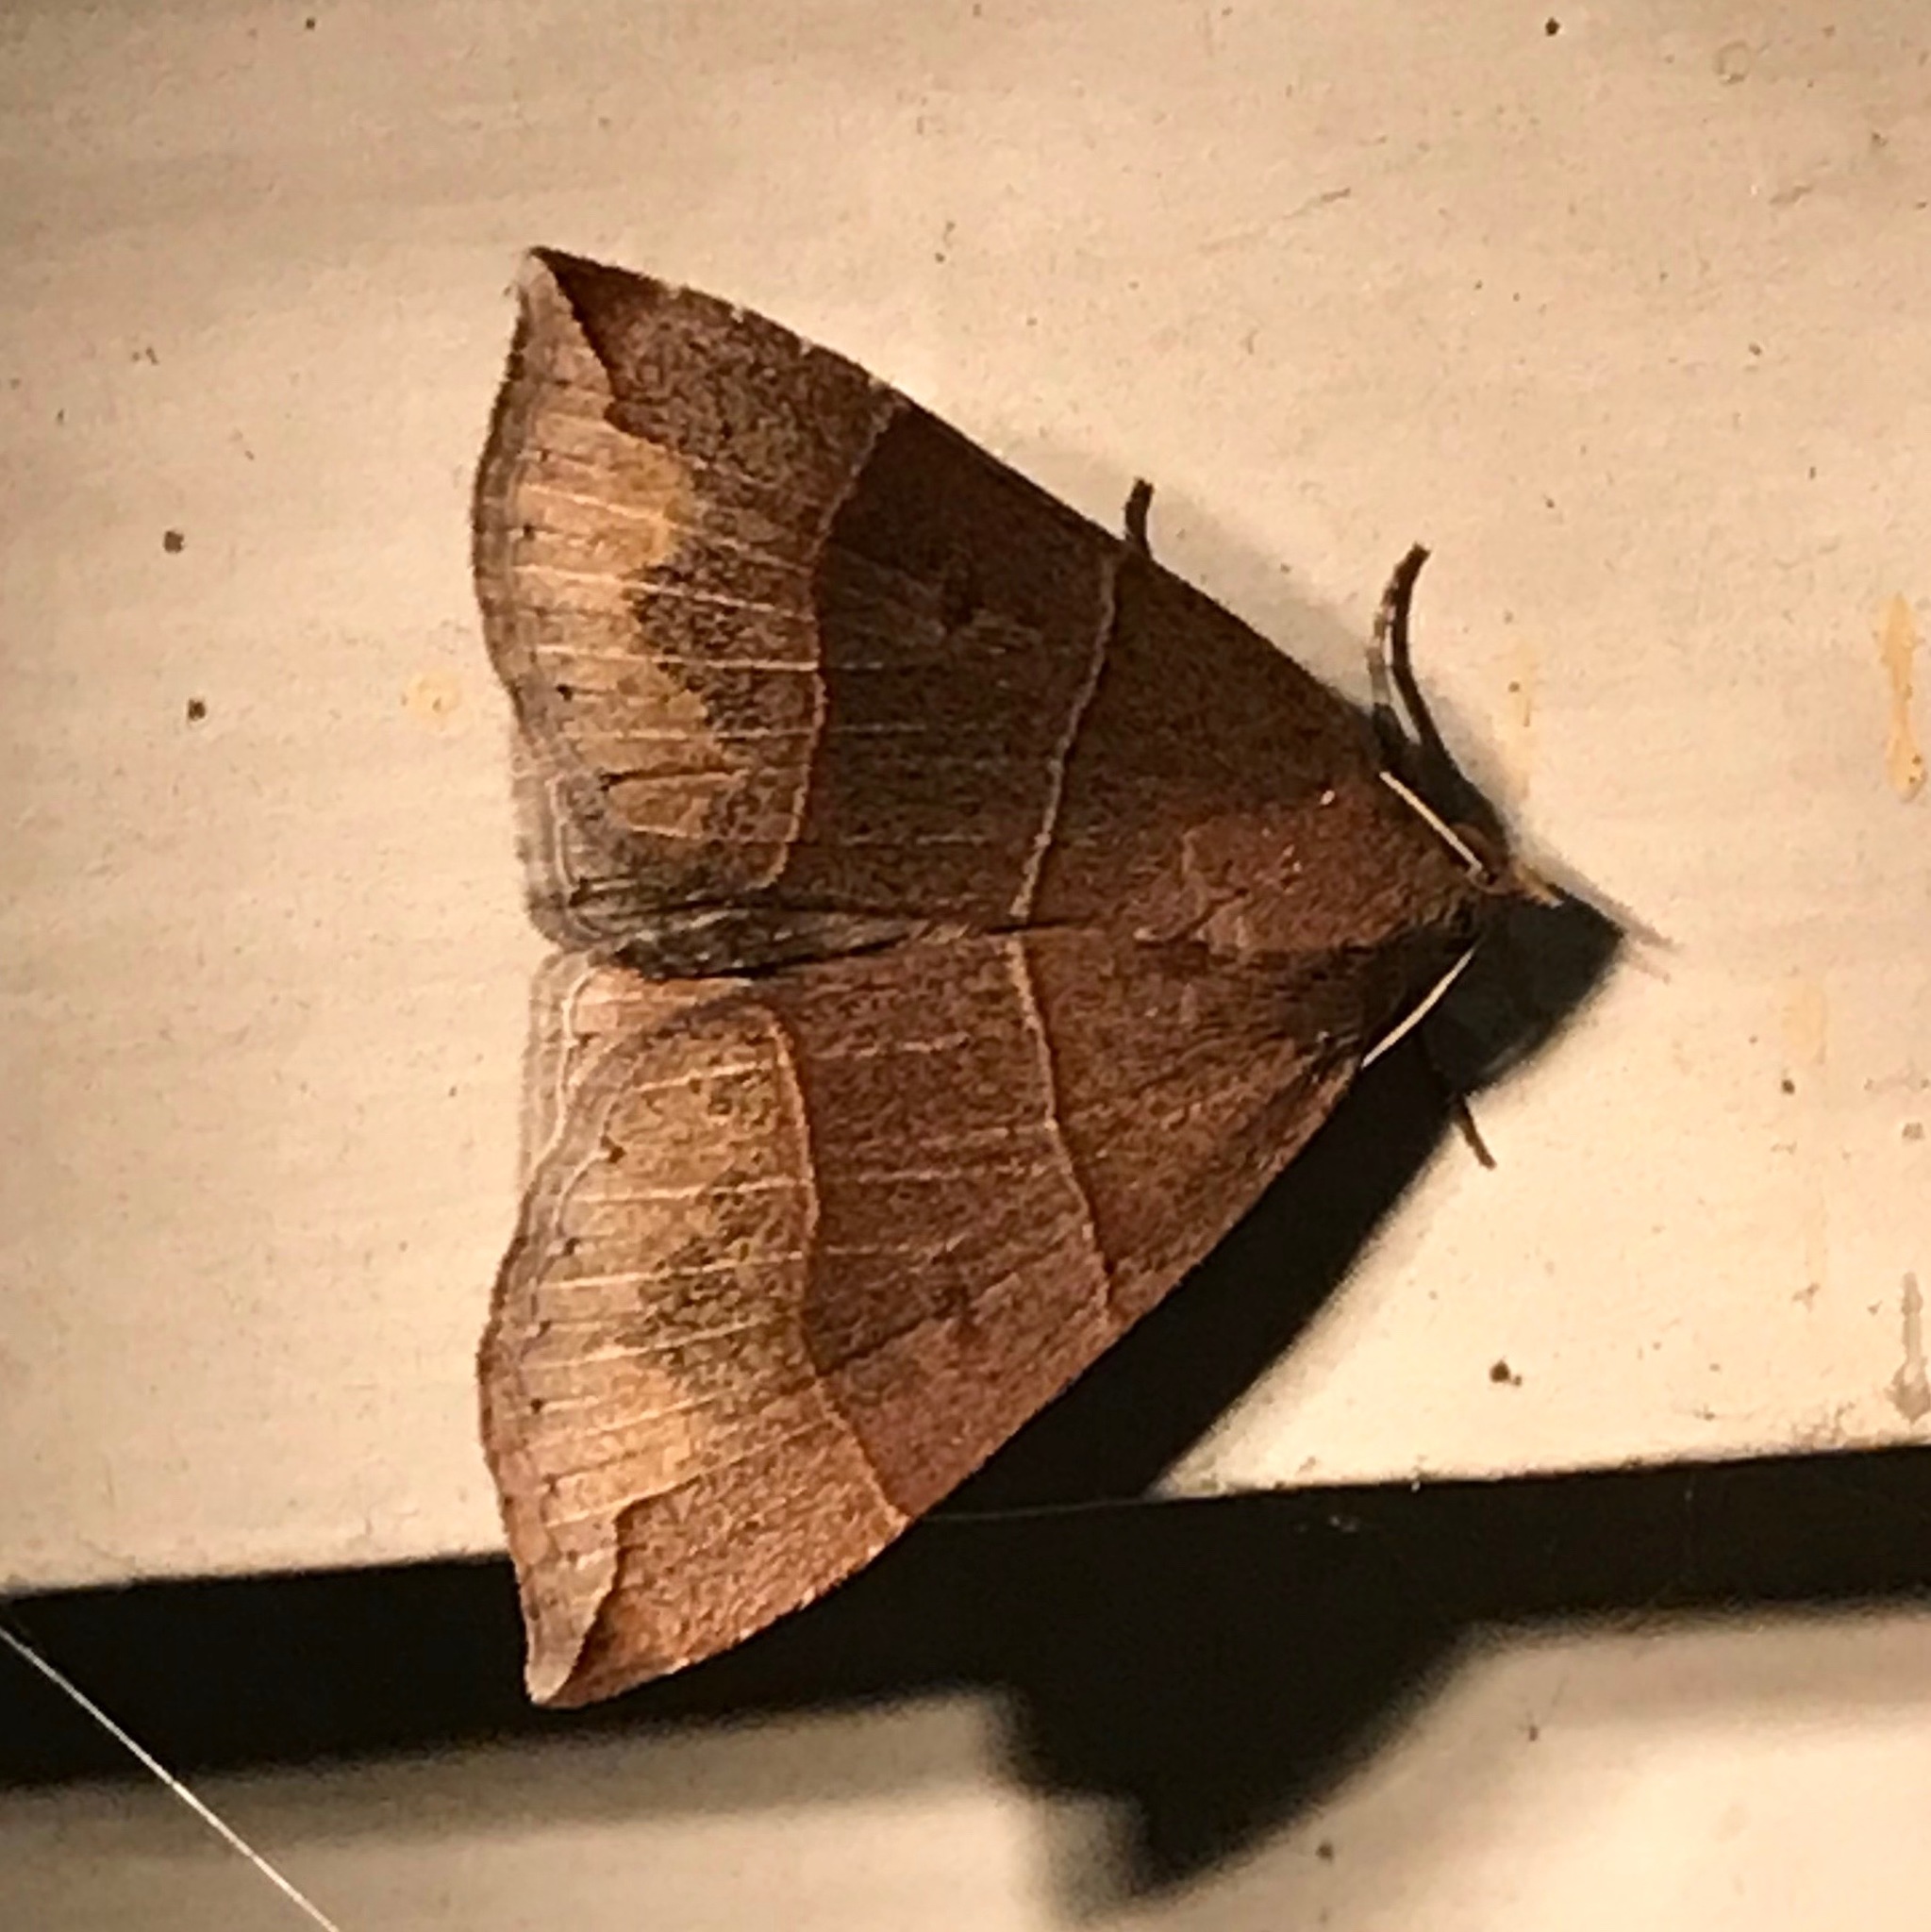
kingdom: Animalia
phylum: Arthropoda
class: Insecta
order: Lepidoptera
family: Erebidae
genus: Parallelia
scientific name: Parallelia bistriaris
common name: Maple looper moth
